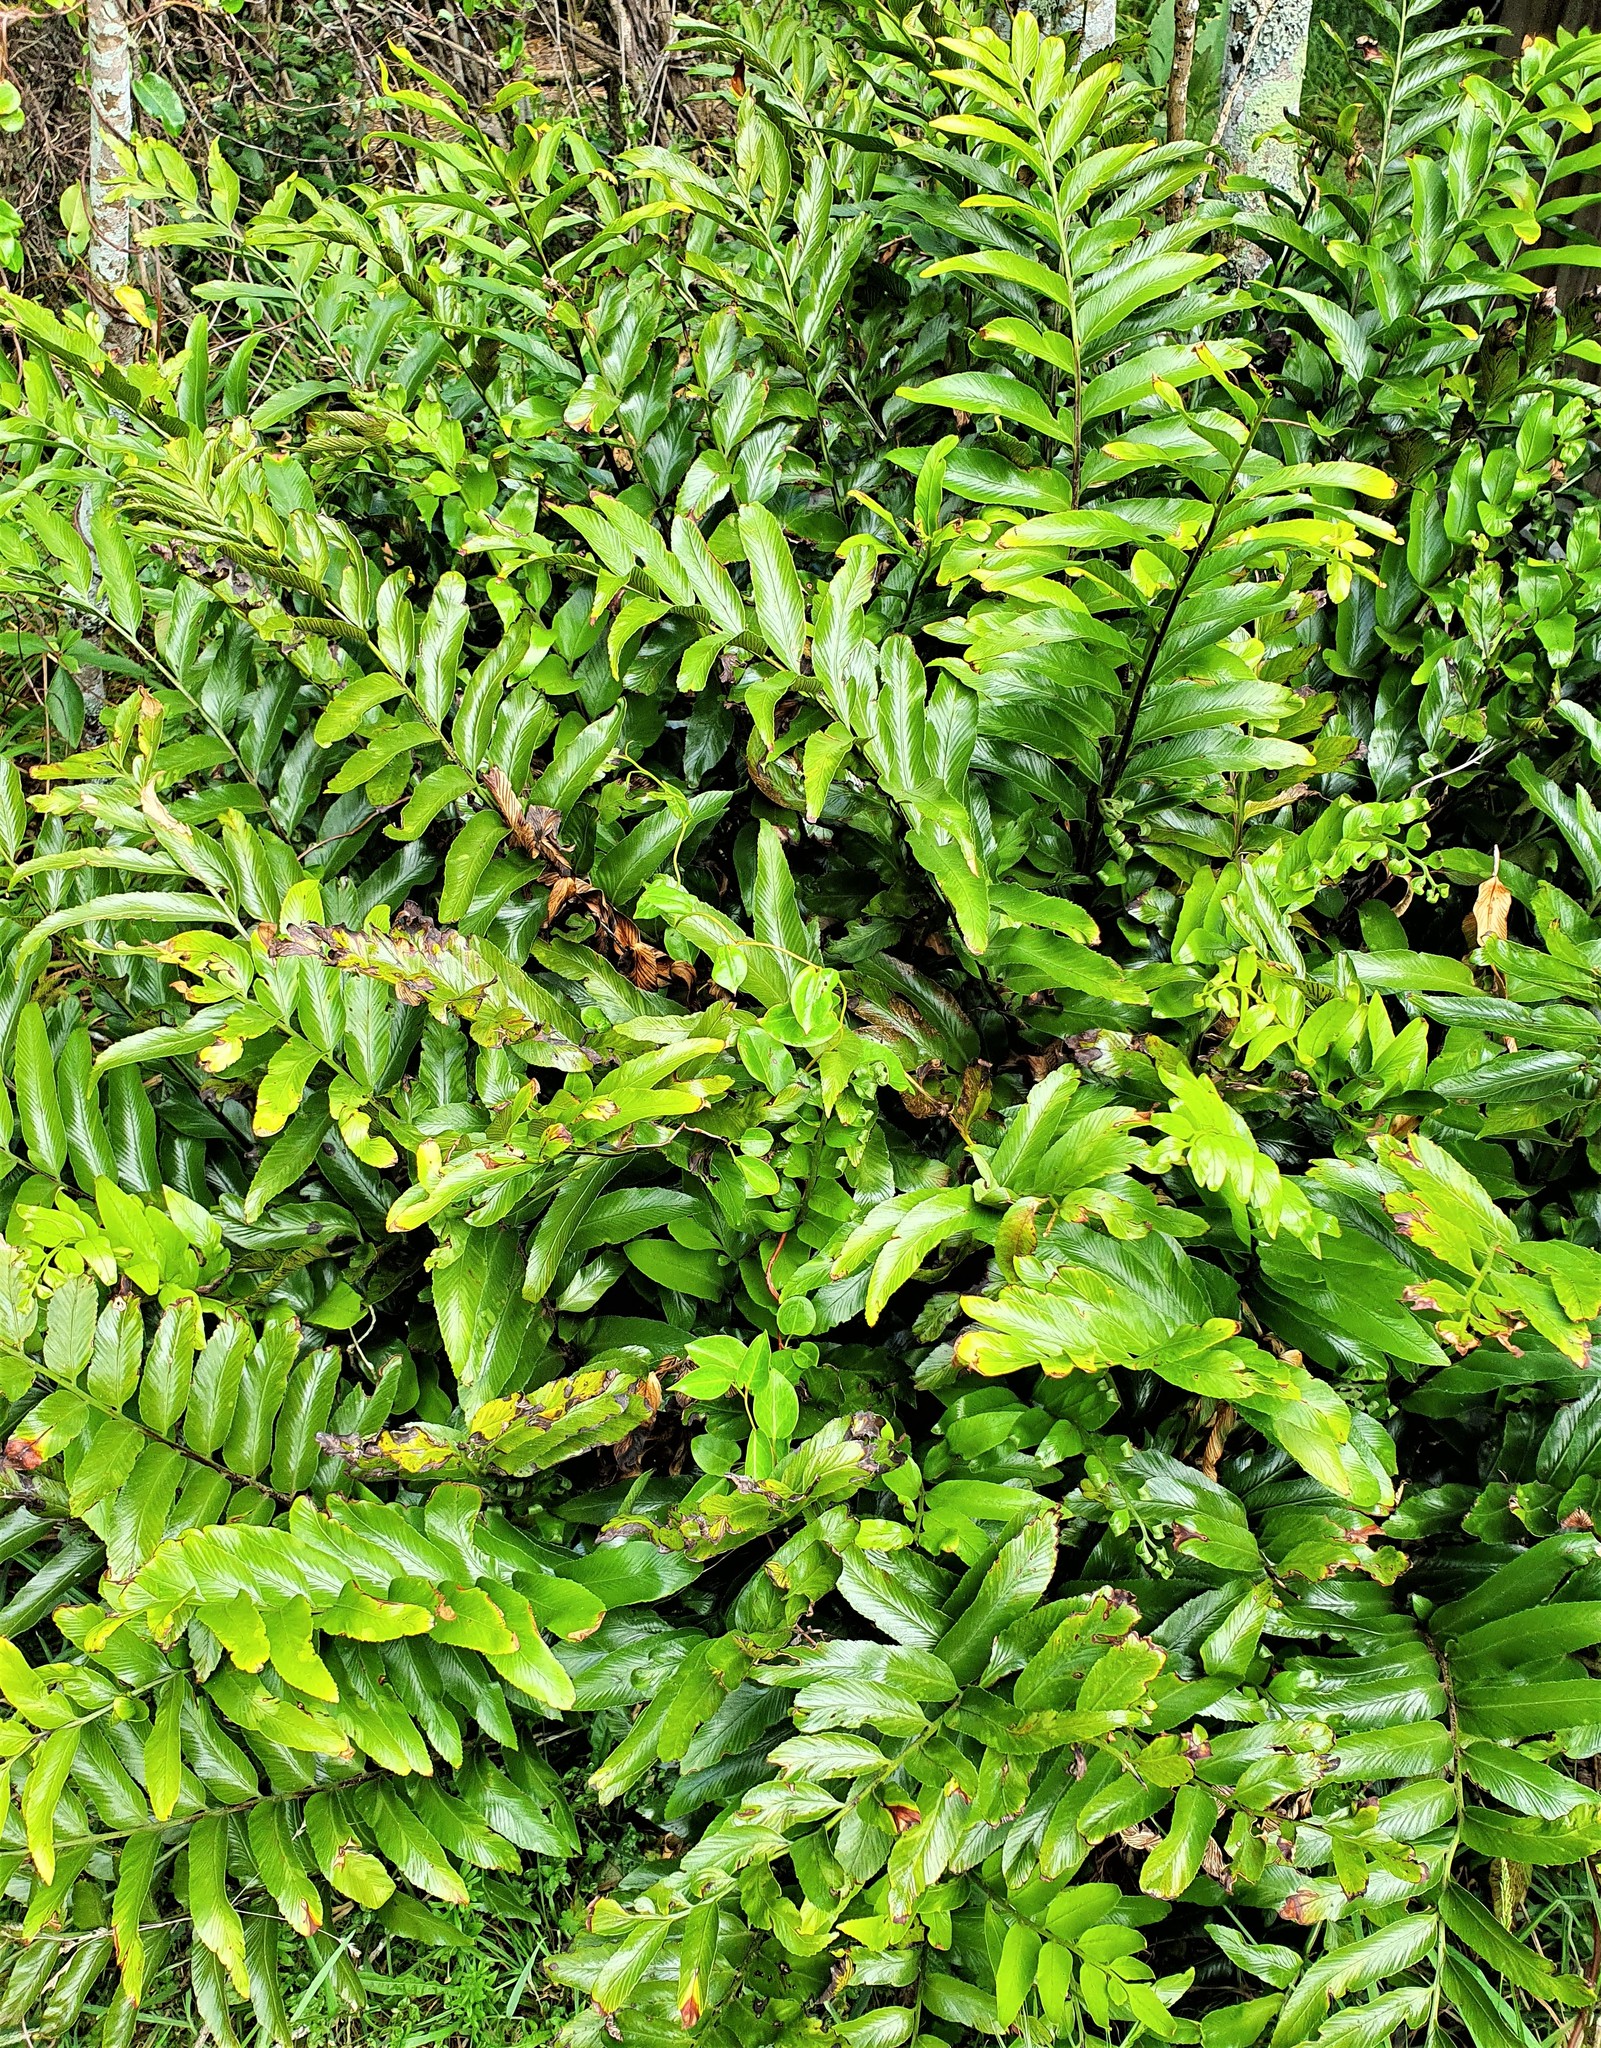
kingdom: Plantae
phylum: Tracheophyta
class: Polypodiopsida
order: Polypodiales
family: Aspleniaceae
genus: Asplenium
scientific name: Asplenium oblongifolium
